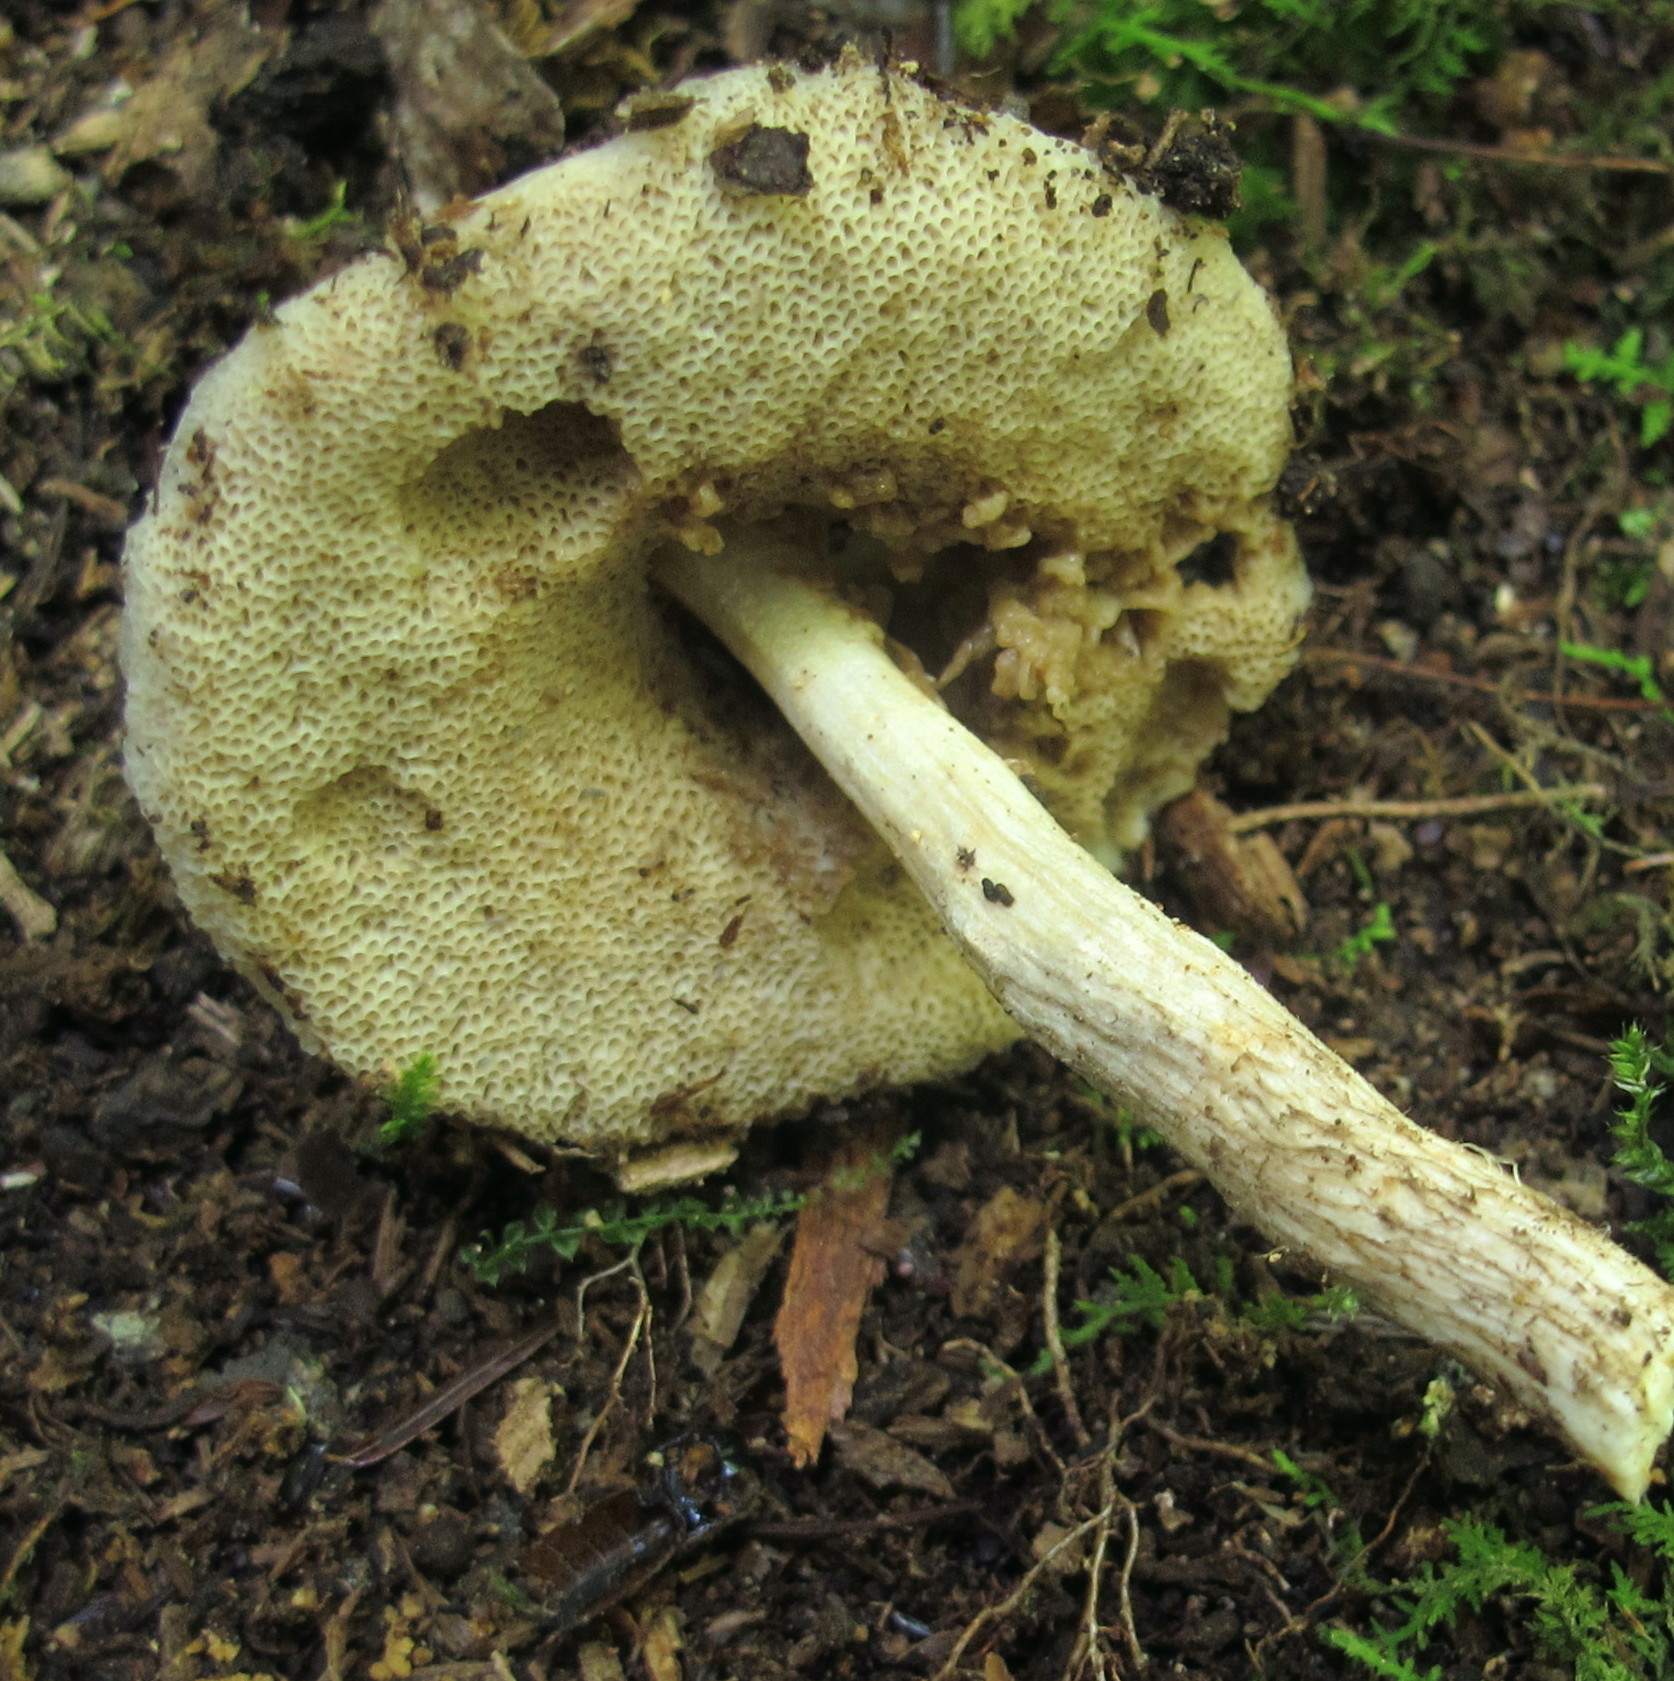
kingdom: Fungi
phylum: Basidiomycota
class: Agaricomycetes
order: Boletales
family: Boletaceae
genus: Leccinellum
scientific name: Leccinellum albellum
